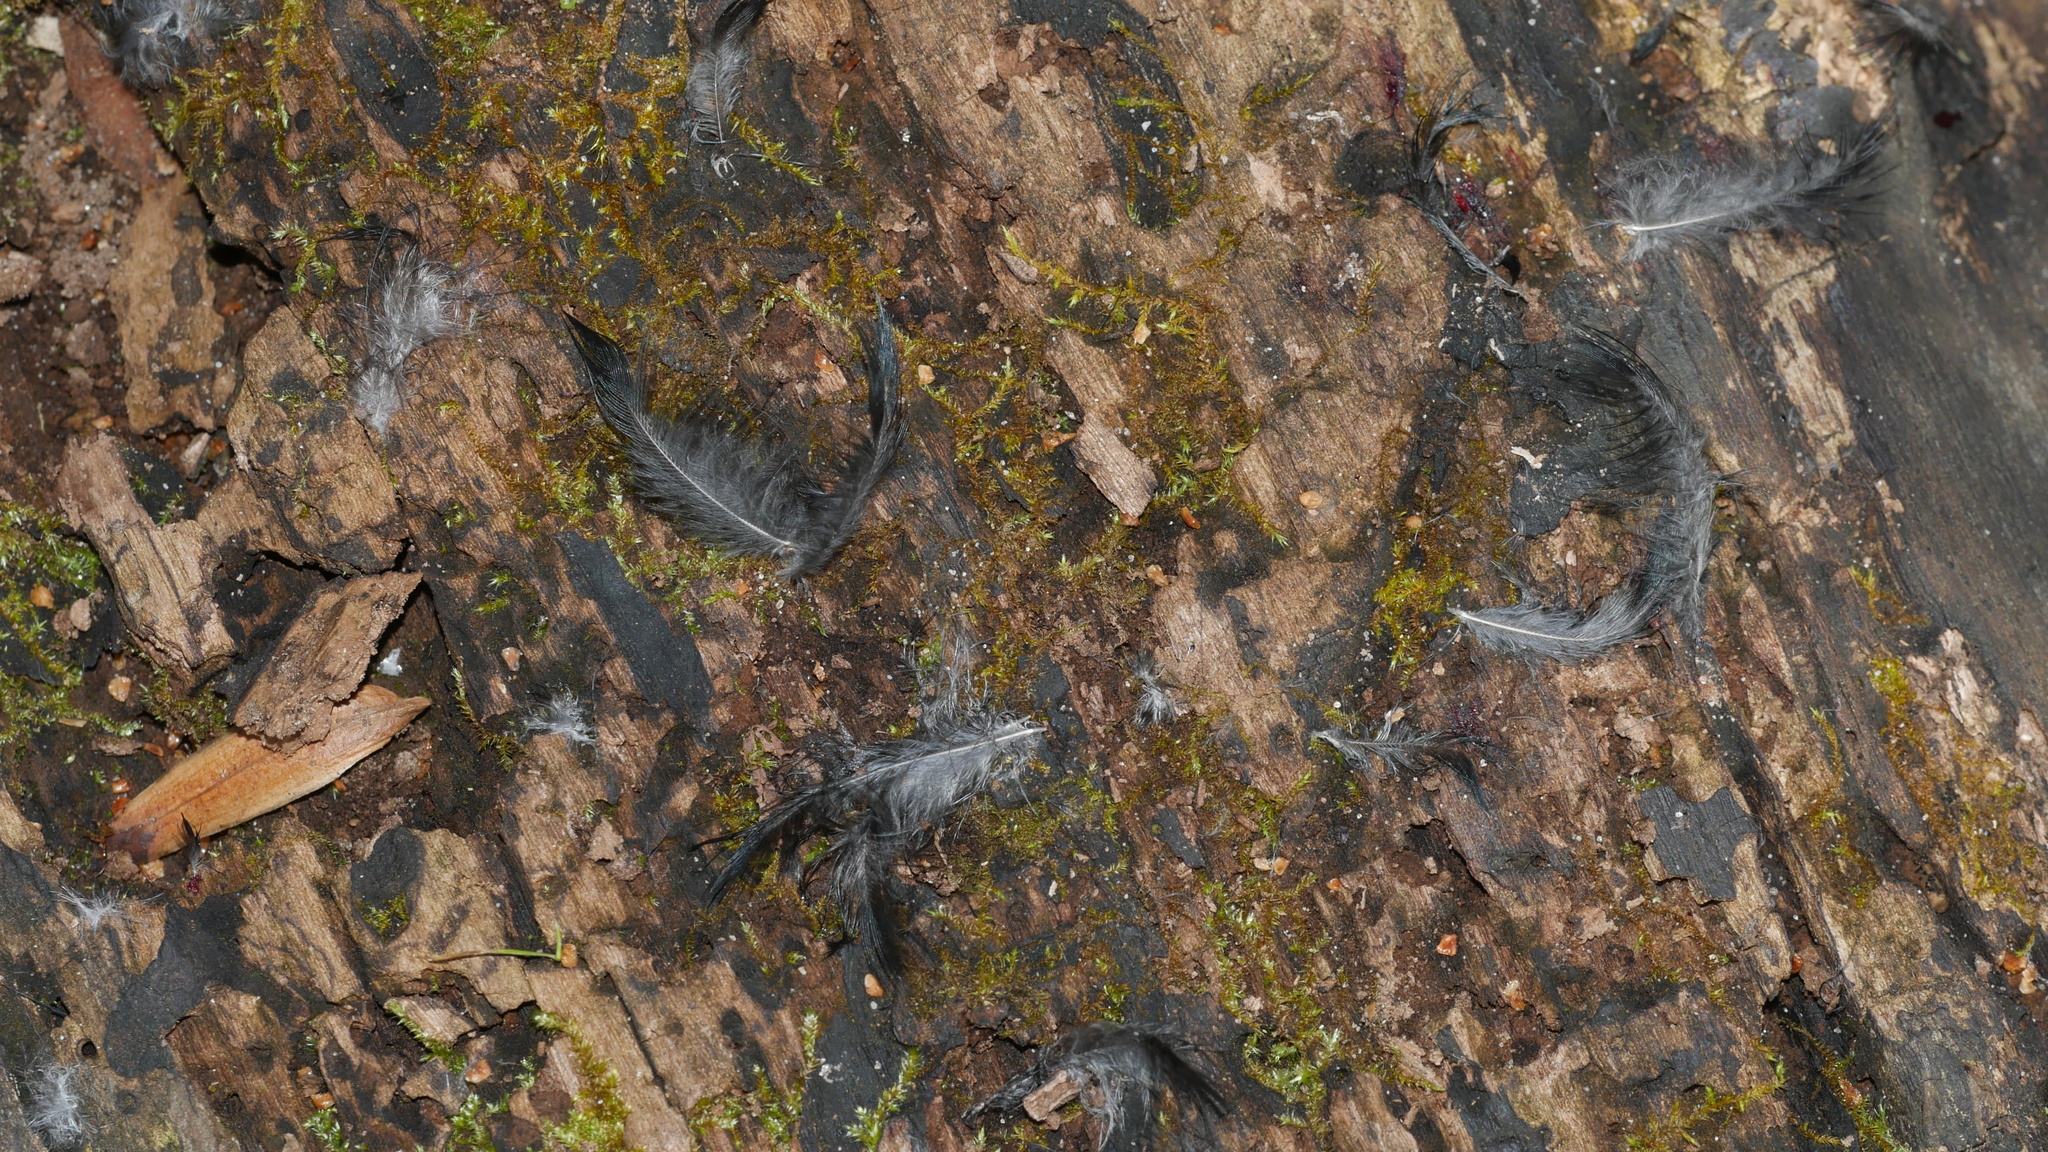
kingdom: Animalia
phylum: Chordata
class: Aves
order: Passeriformes
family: Icteridae
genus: Agelaius
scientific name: Agelaius phoeniceus
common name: Red-winged blackbird
